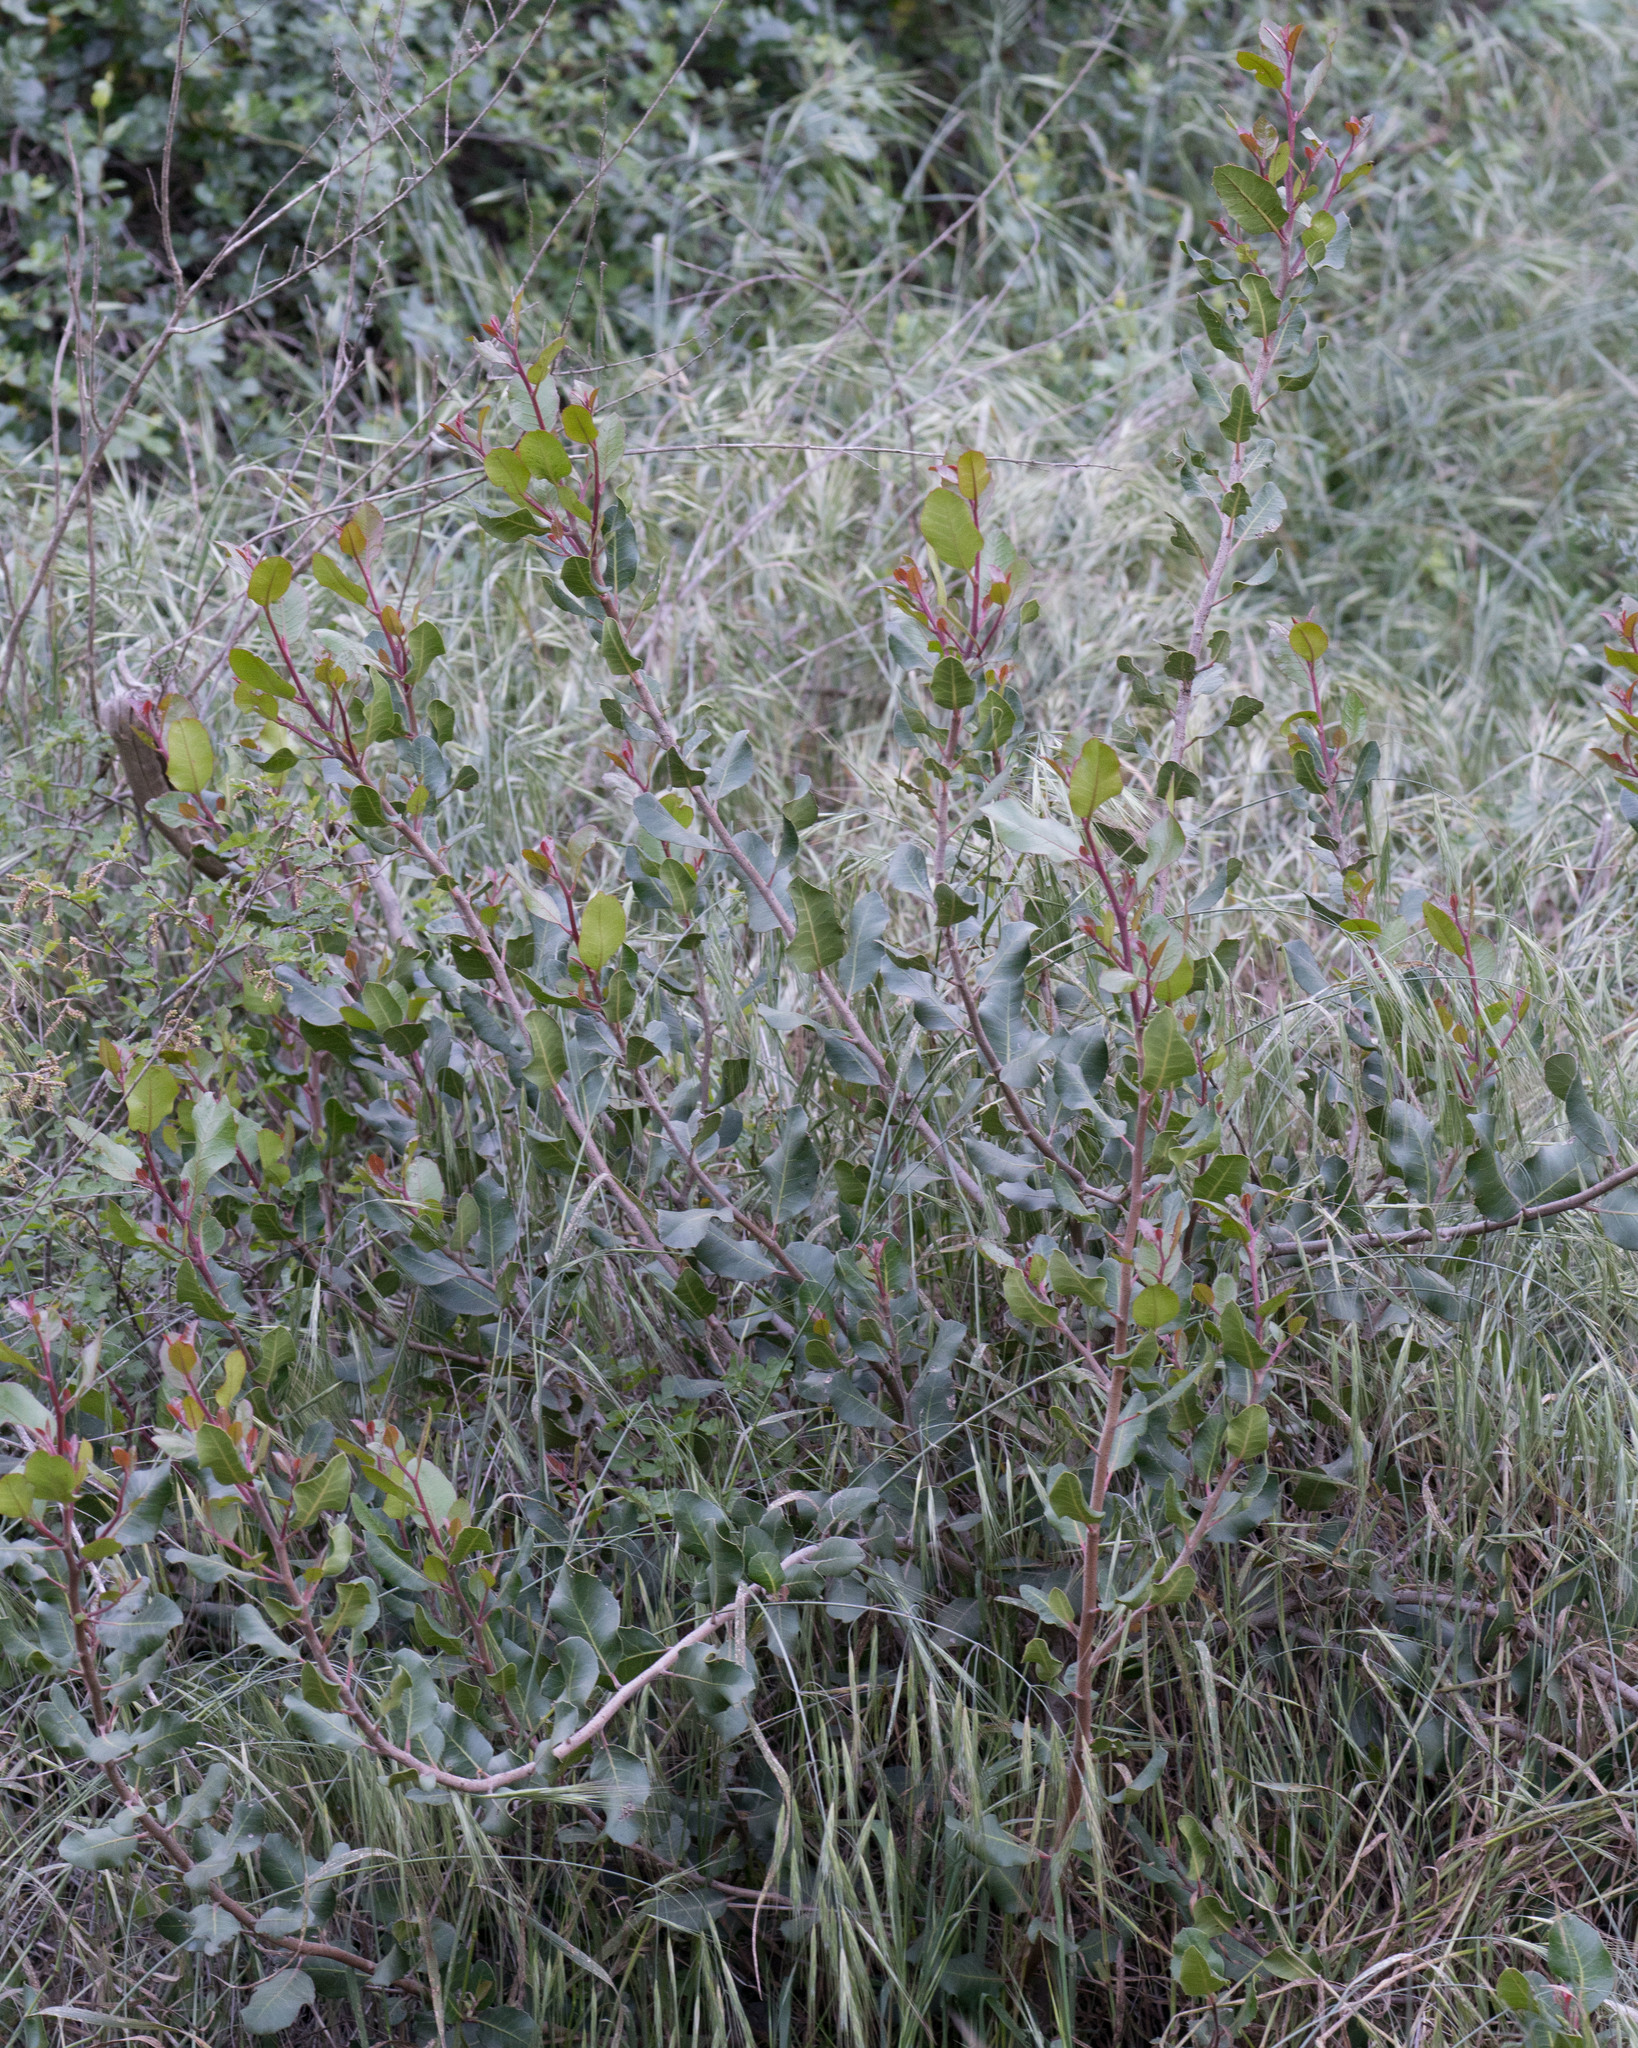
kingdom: Plantae
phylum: Tracheophyta
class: Magnoliopsida
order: Sapindales
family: Anacardiaceae
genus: Rhus
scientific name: Rhus integrifolia
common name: Lemonade sumac
